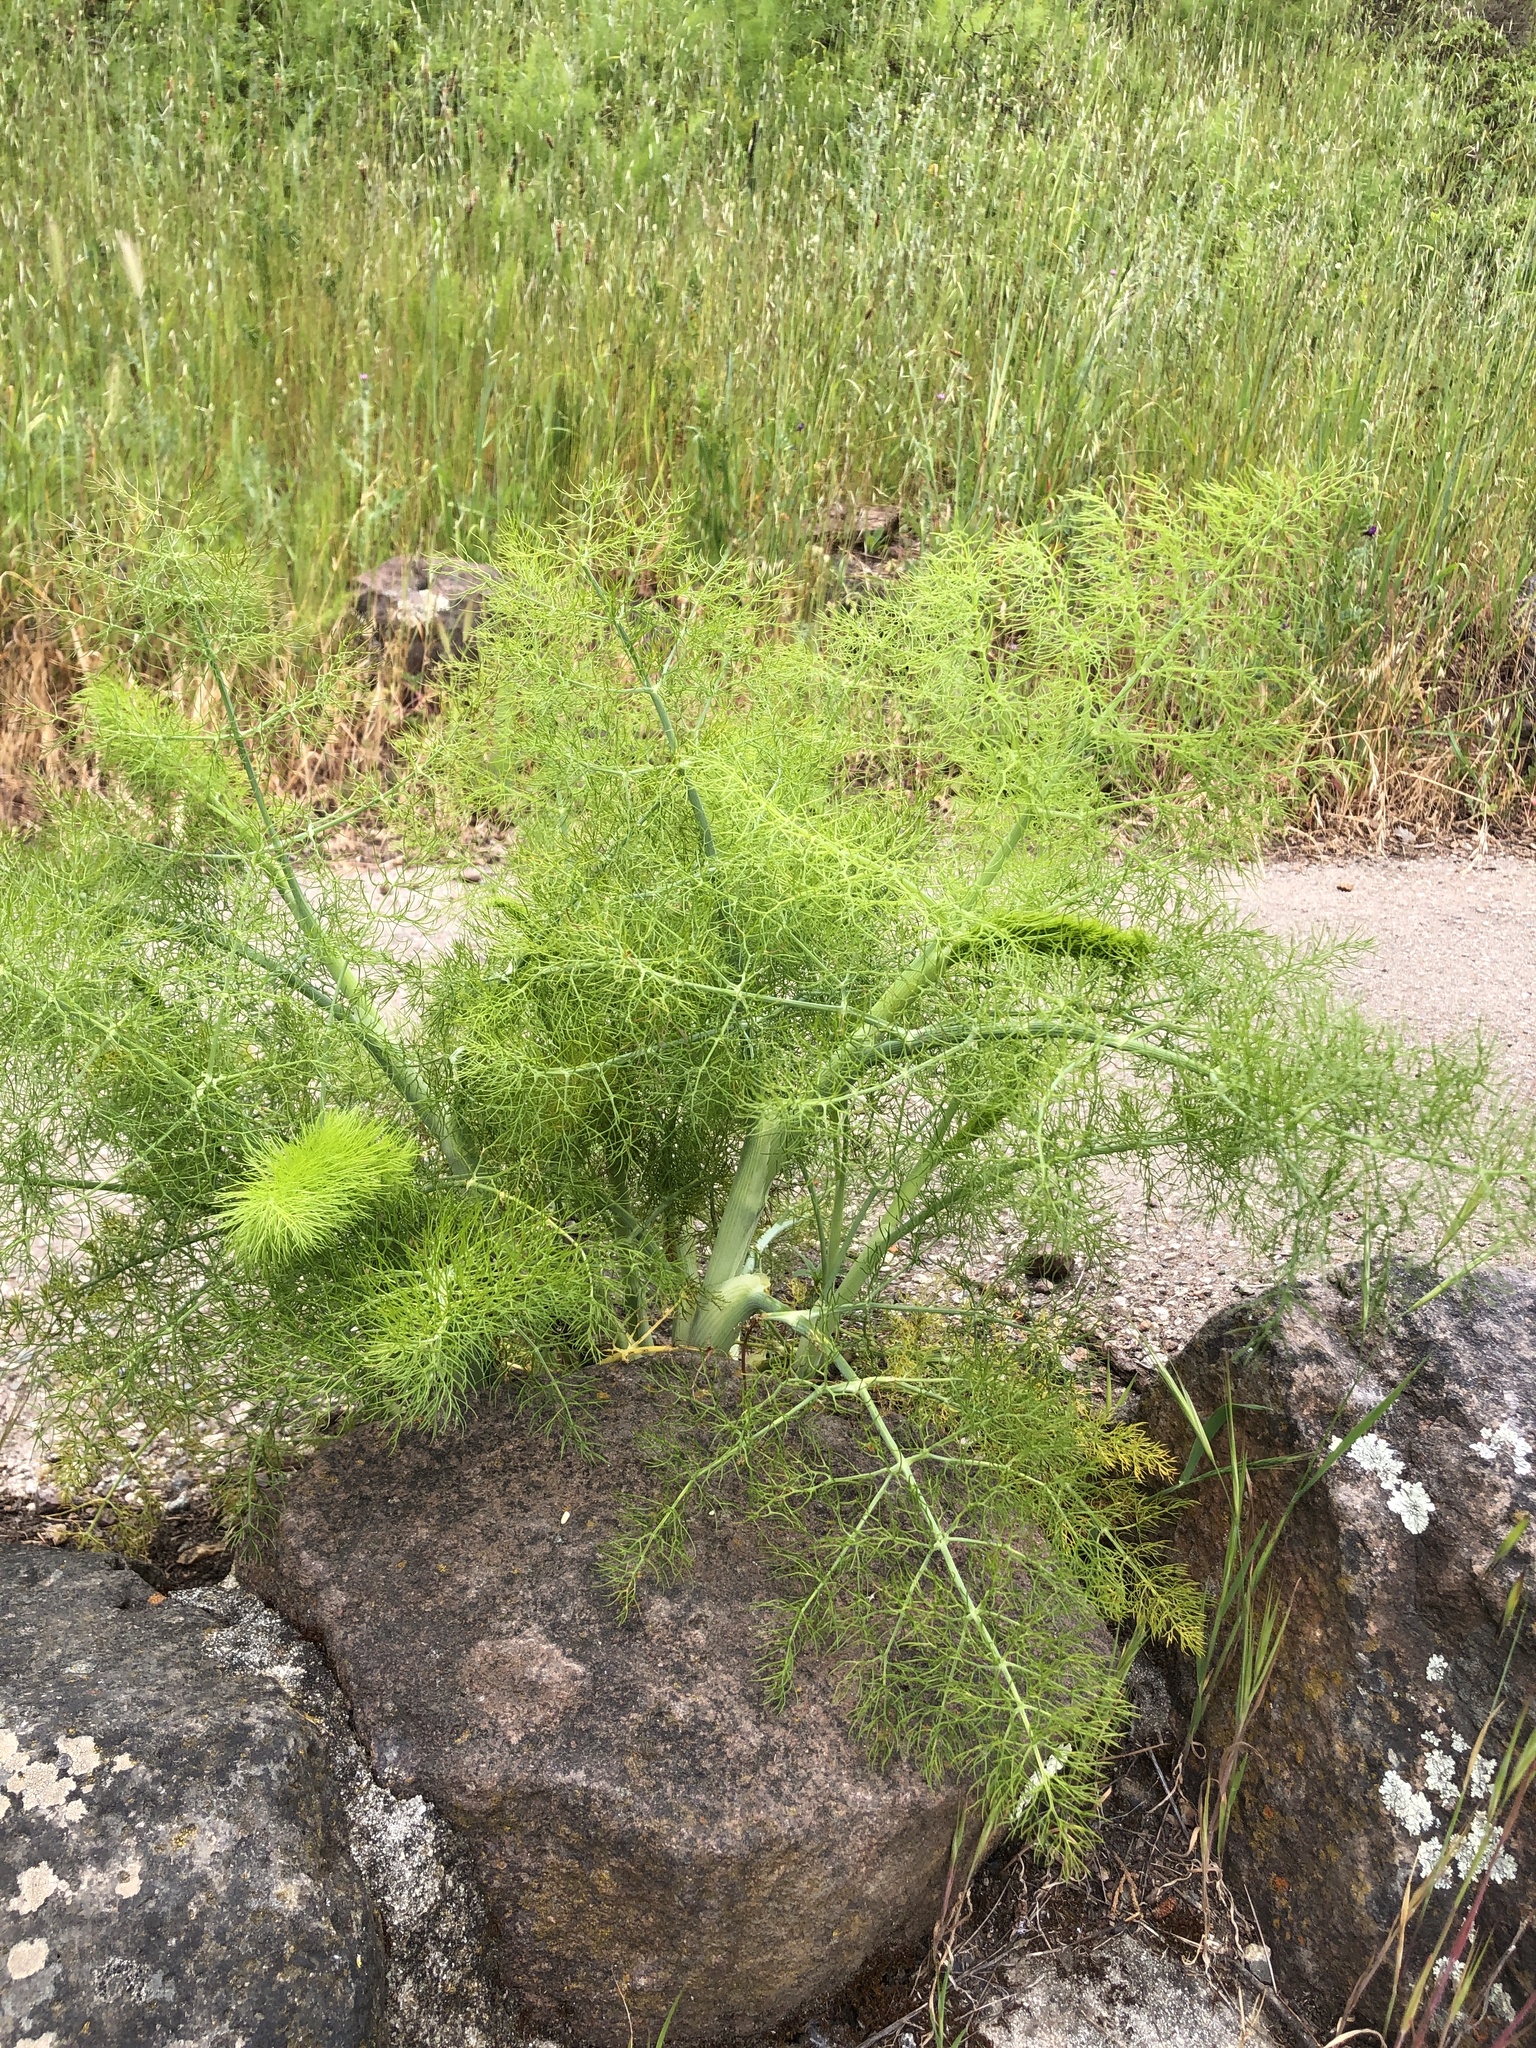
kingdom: Plantae
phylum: Tracheophyta
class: Magnoliopsida
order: Apiales
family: Apiaceae
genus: Foeniculum
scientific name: Foeniculum vulgare
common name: Fennel
